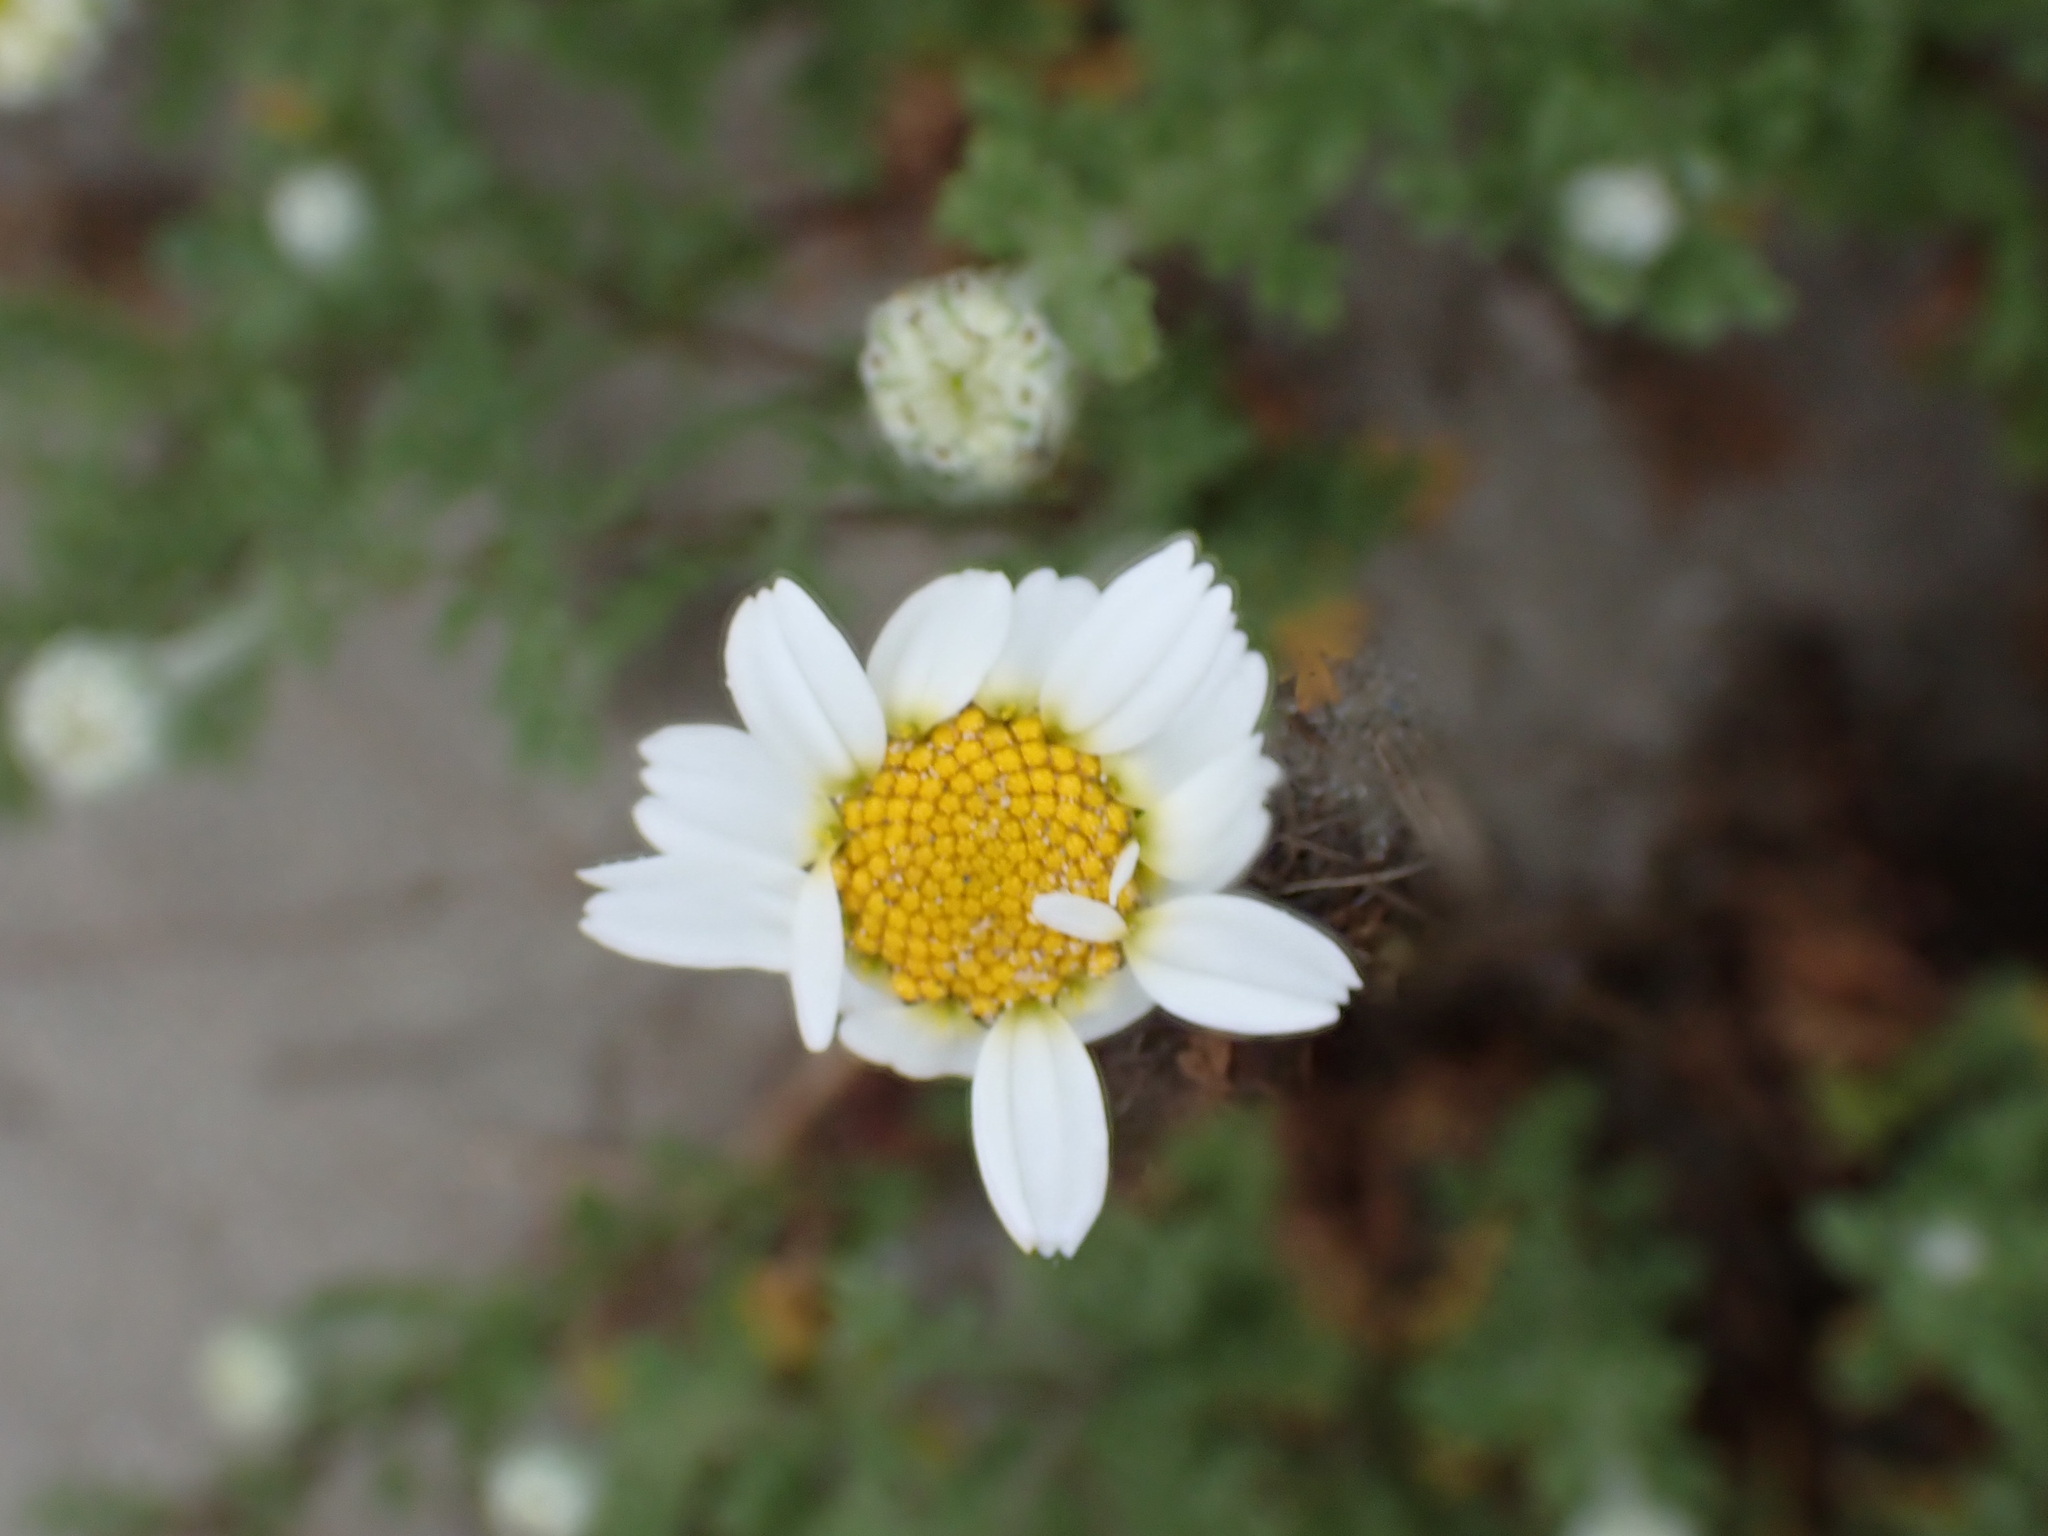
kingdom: Plantae
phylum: Tracheophyta
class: Magnoliopsida
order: Asterales
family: Asteraceae
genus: Anthemis
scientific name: Anthemis maritima
